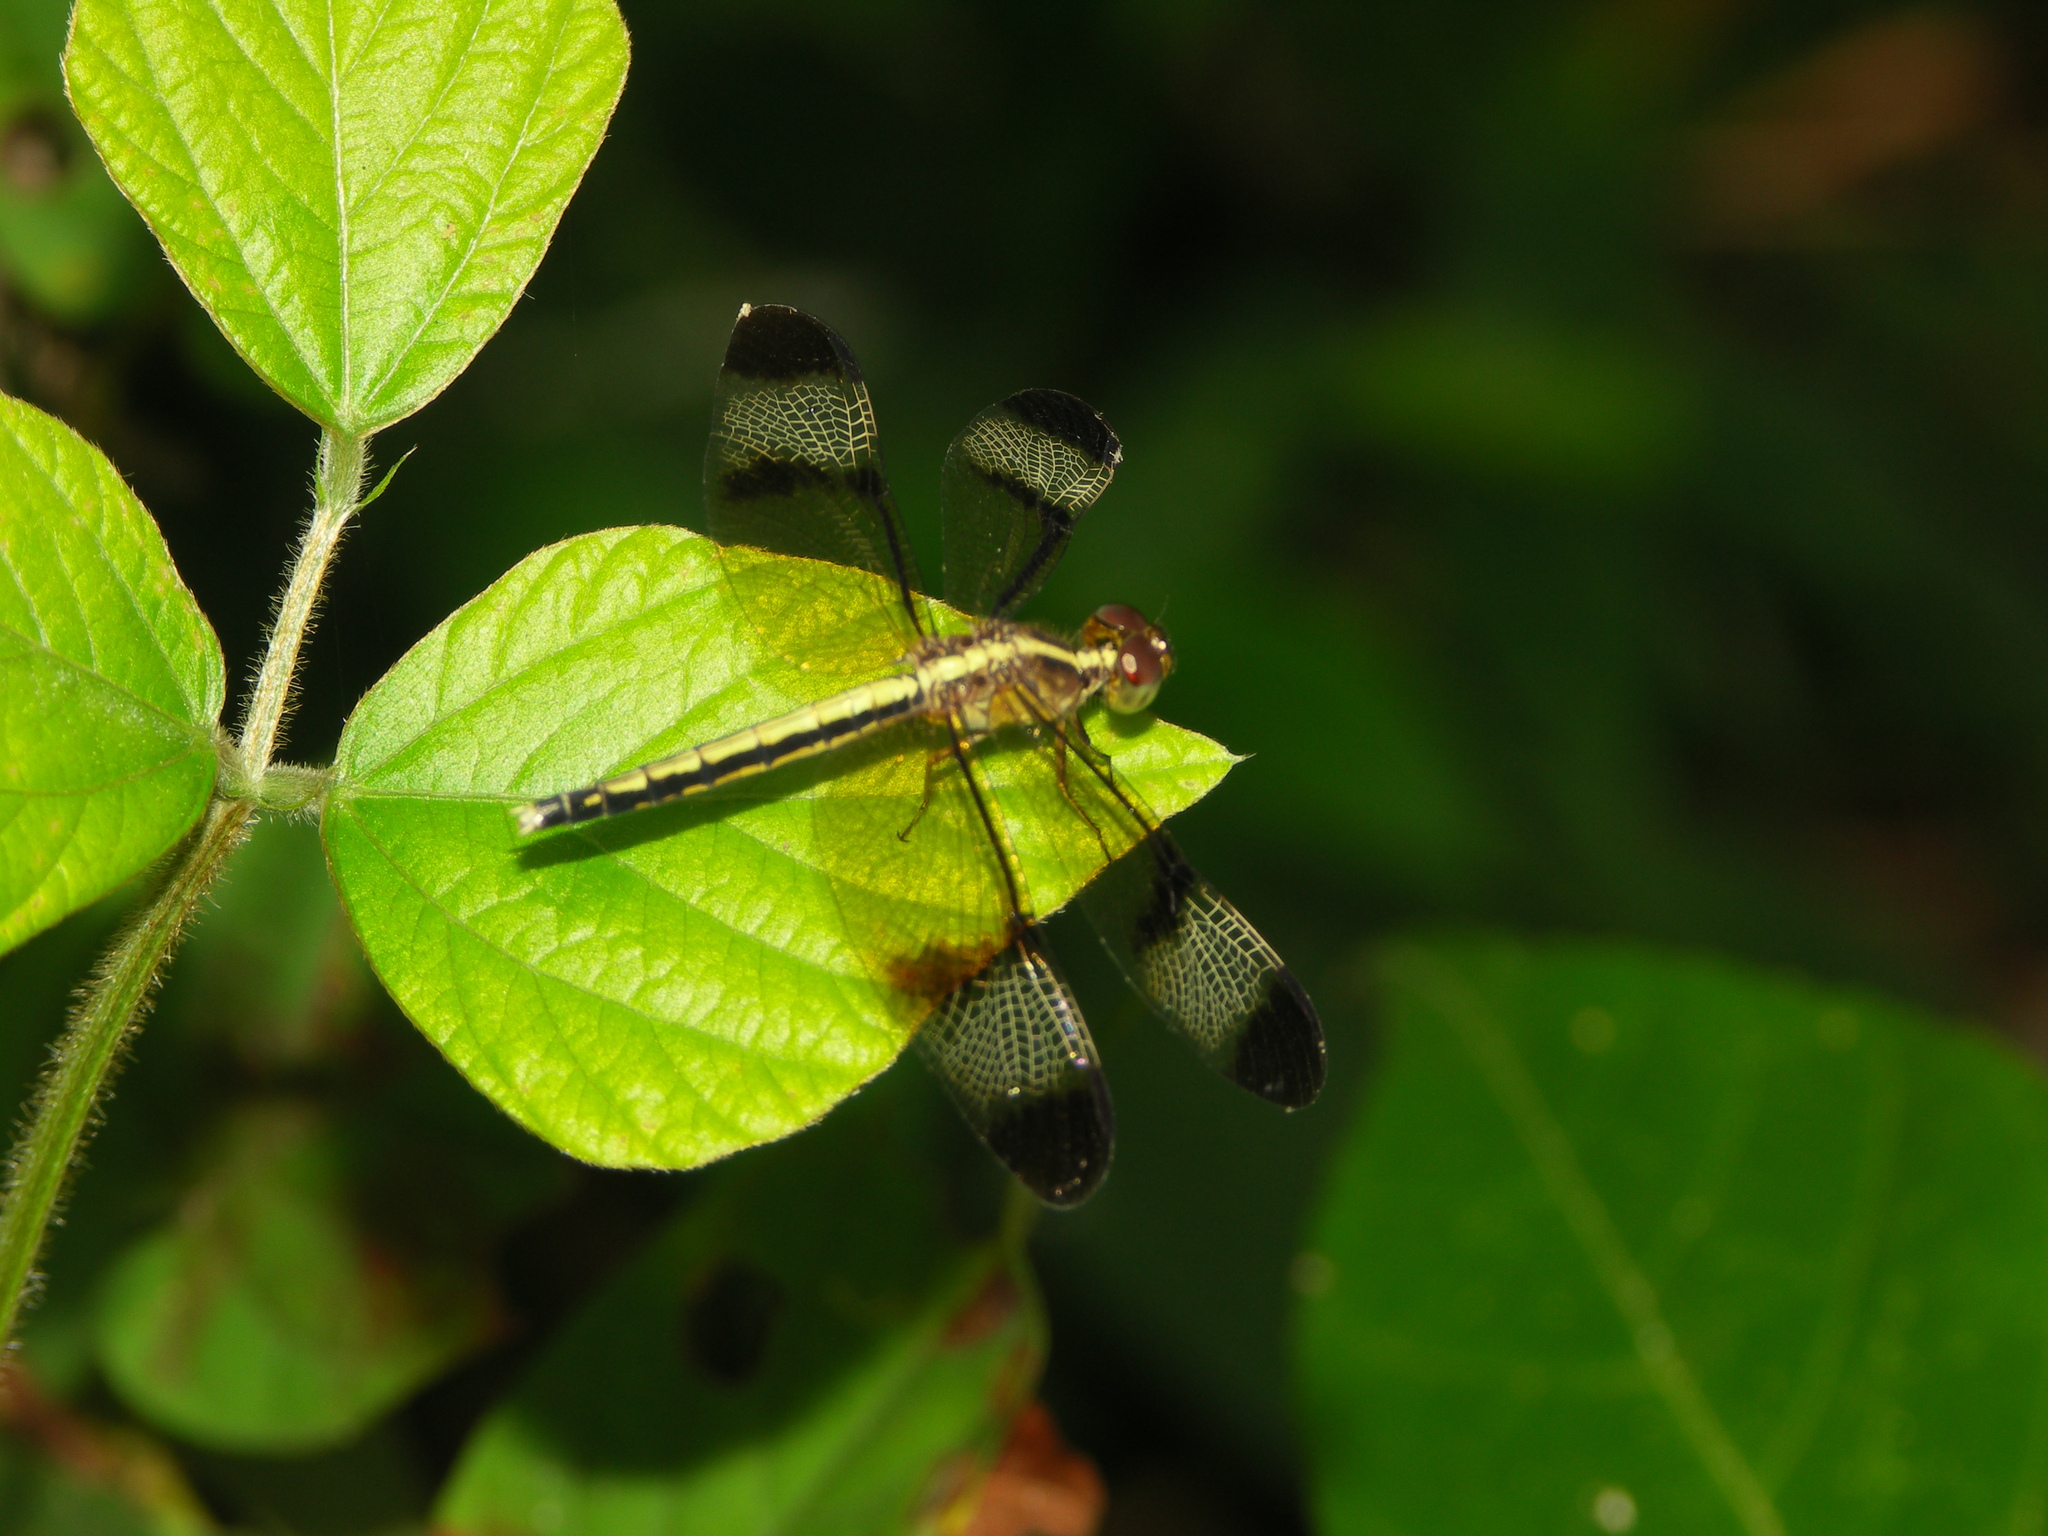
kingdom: Animalia
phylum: Arthropoda
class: Insecta
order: Odonata
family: Libellulidae
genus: Neurothemis
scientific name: Neurothemis tullia
